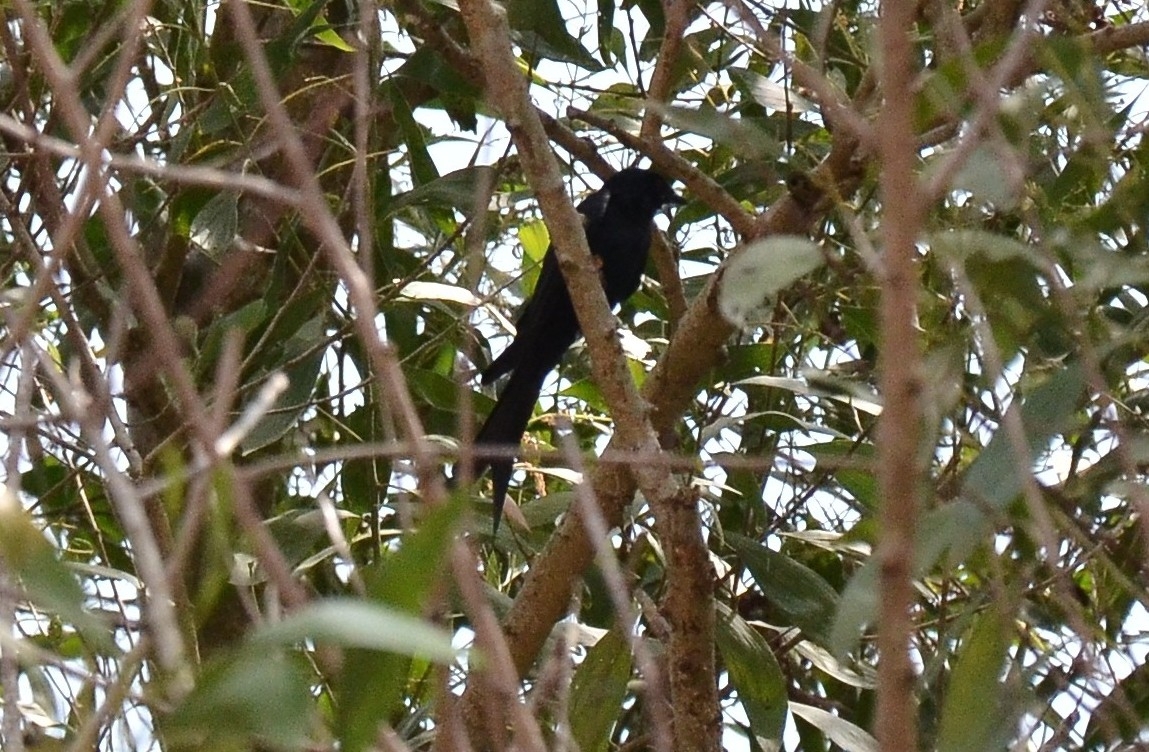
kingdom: Animalia
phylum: Chordata
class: Aves
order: Passeriformes
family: Dicruridae
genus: Dicrurus
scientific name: Dicrurus paradiseus
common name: Greater racket-tailed drongo
